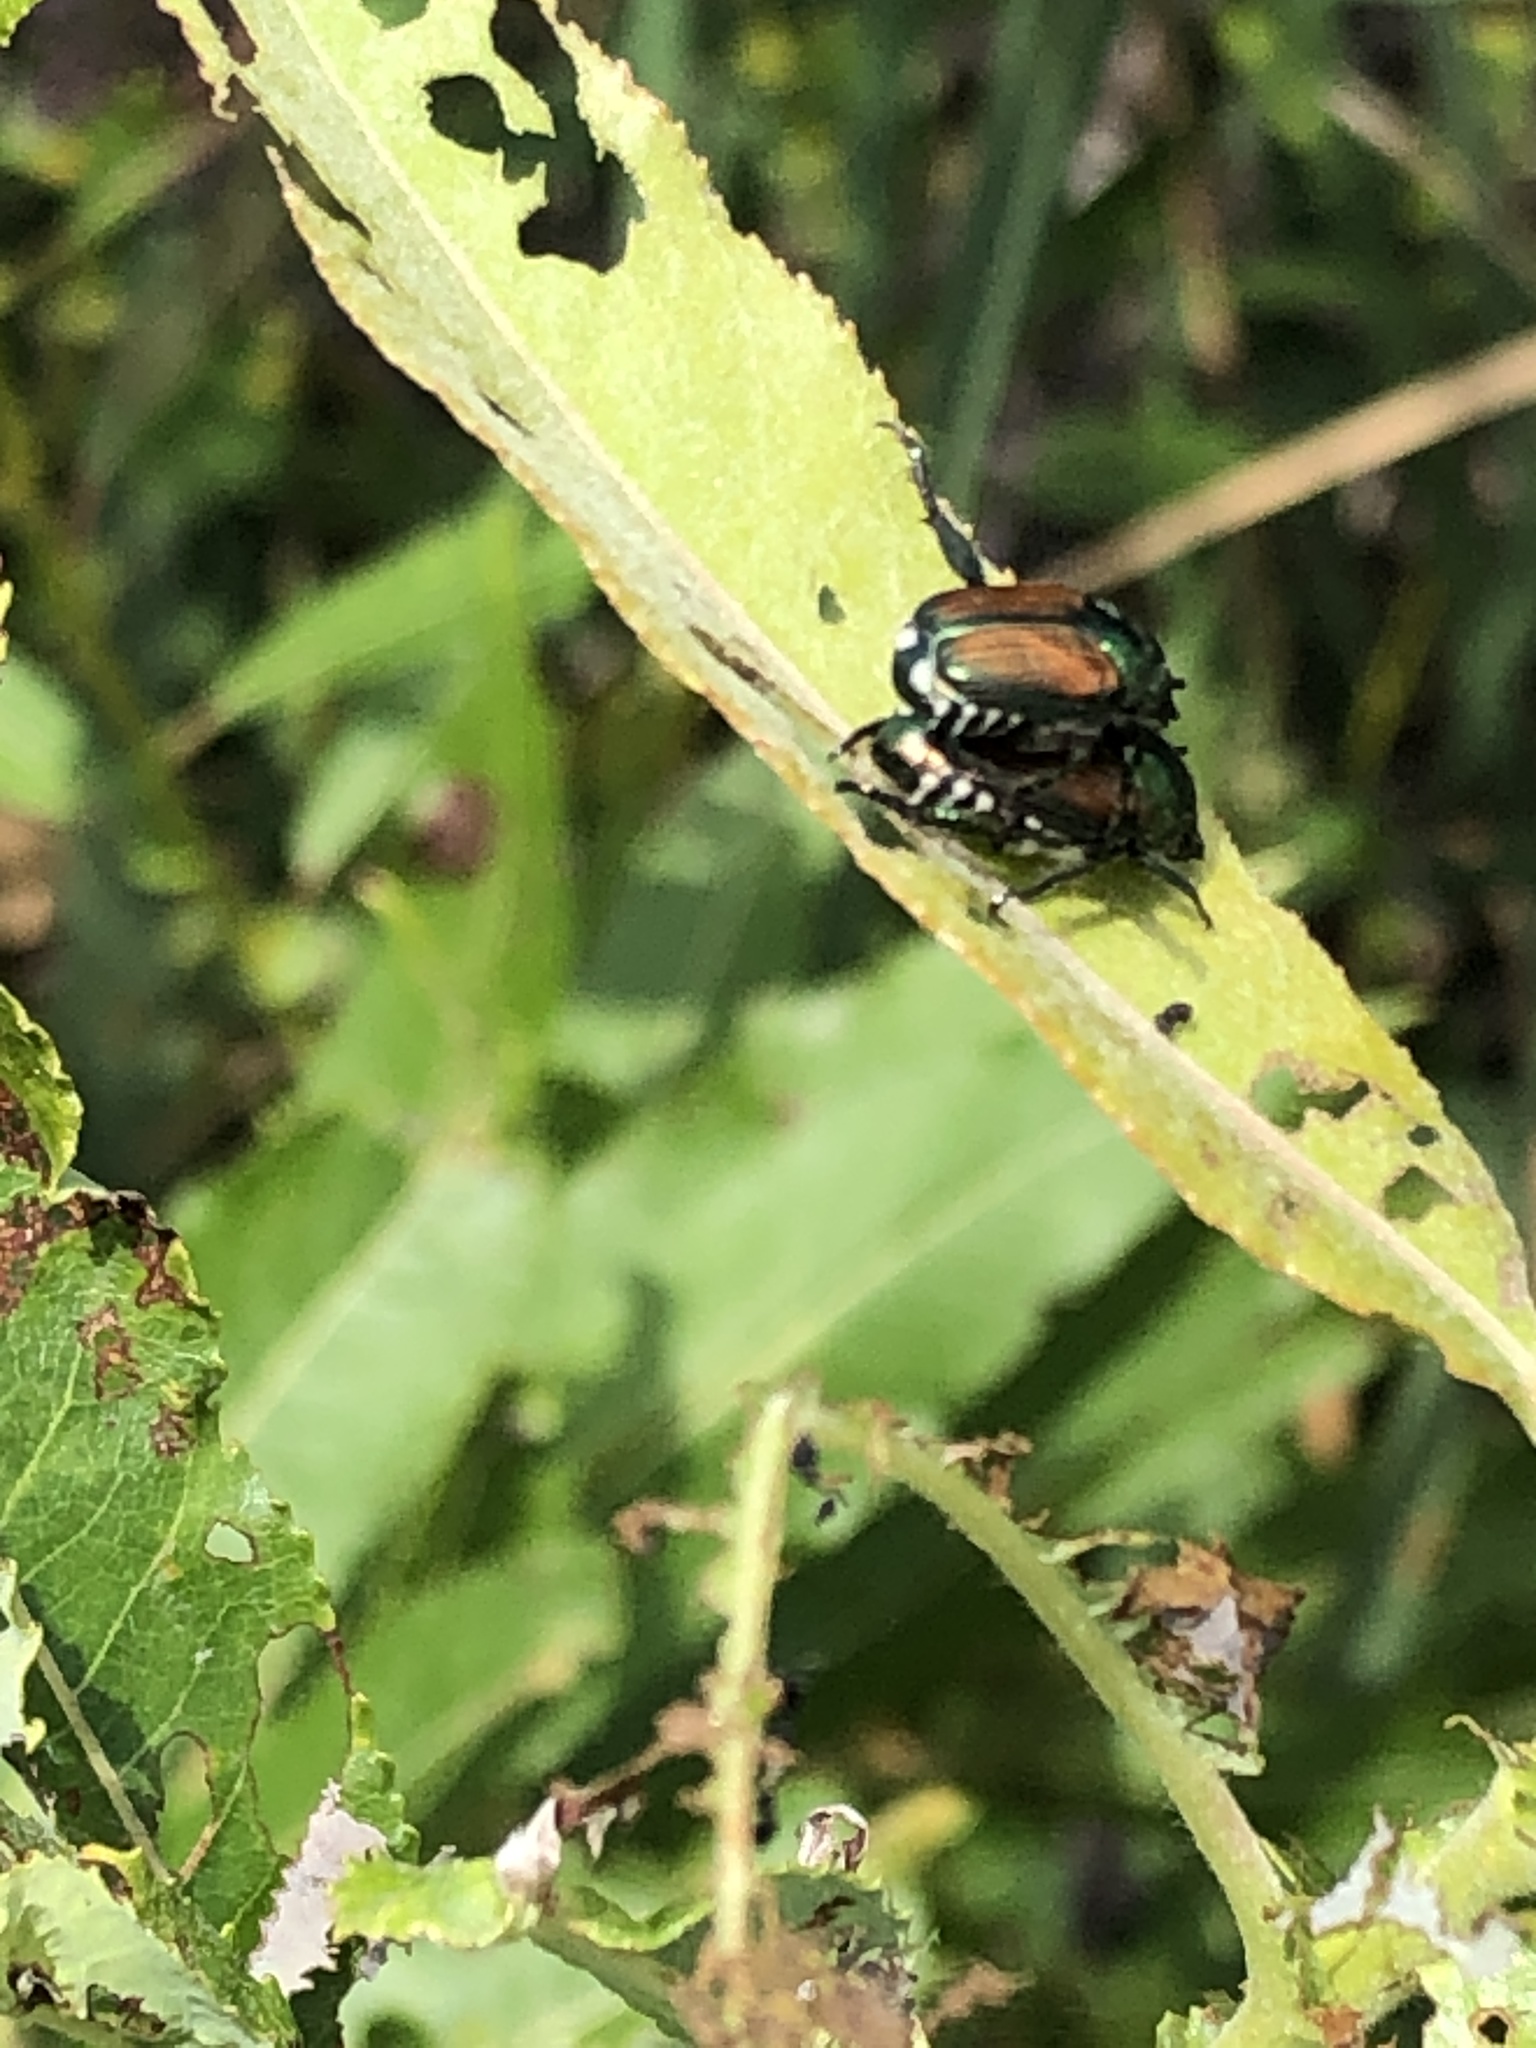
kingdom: Animalia
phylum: Arthropoda
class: Insecta
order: Coleoptera
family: Scarabaeidae
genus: Popillia
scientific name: Popillia japonica
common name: Japanese beetle
